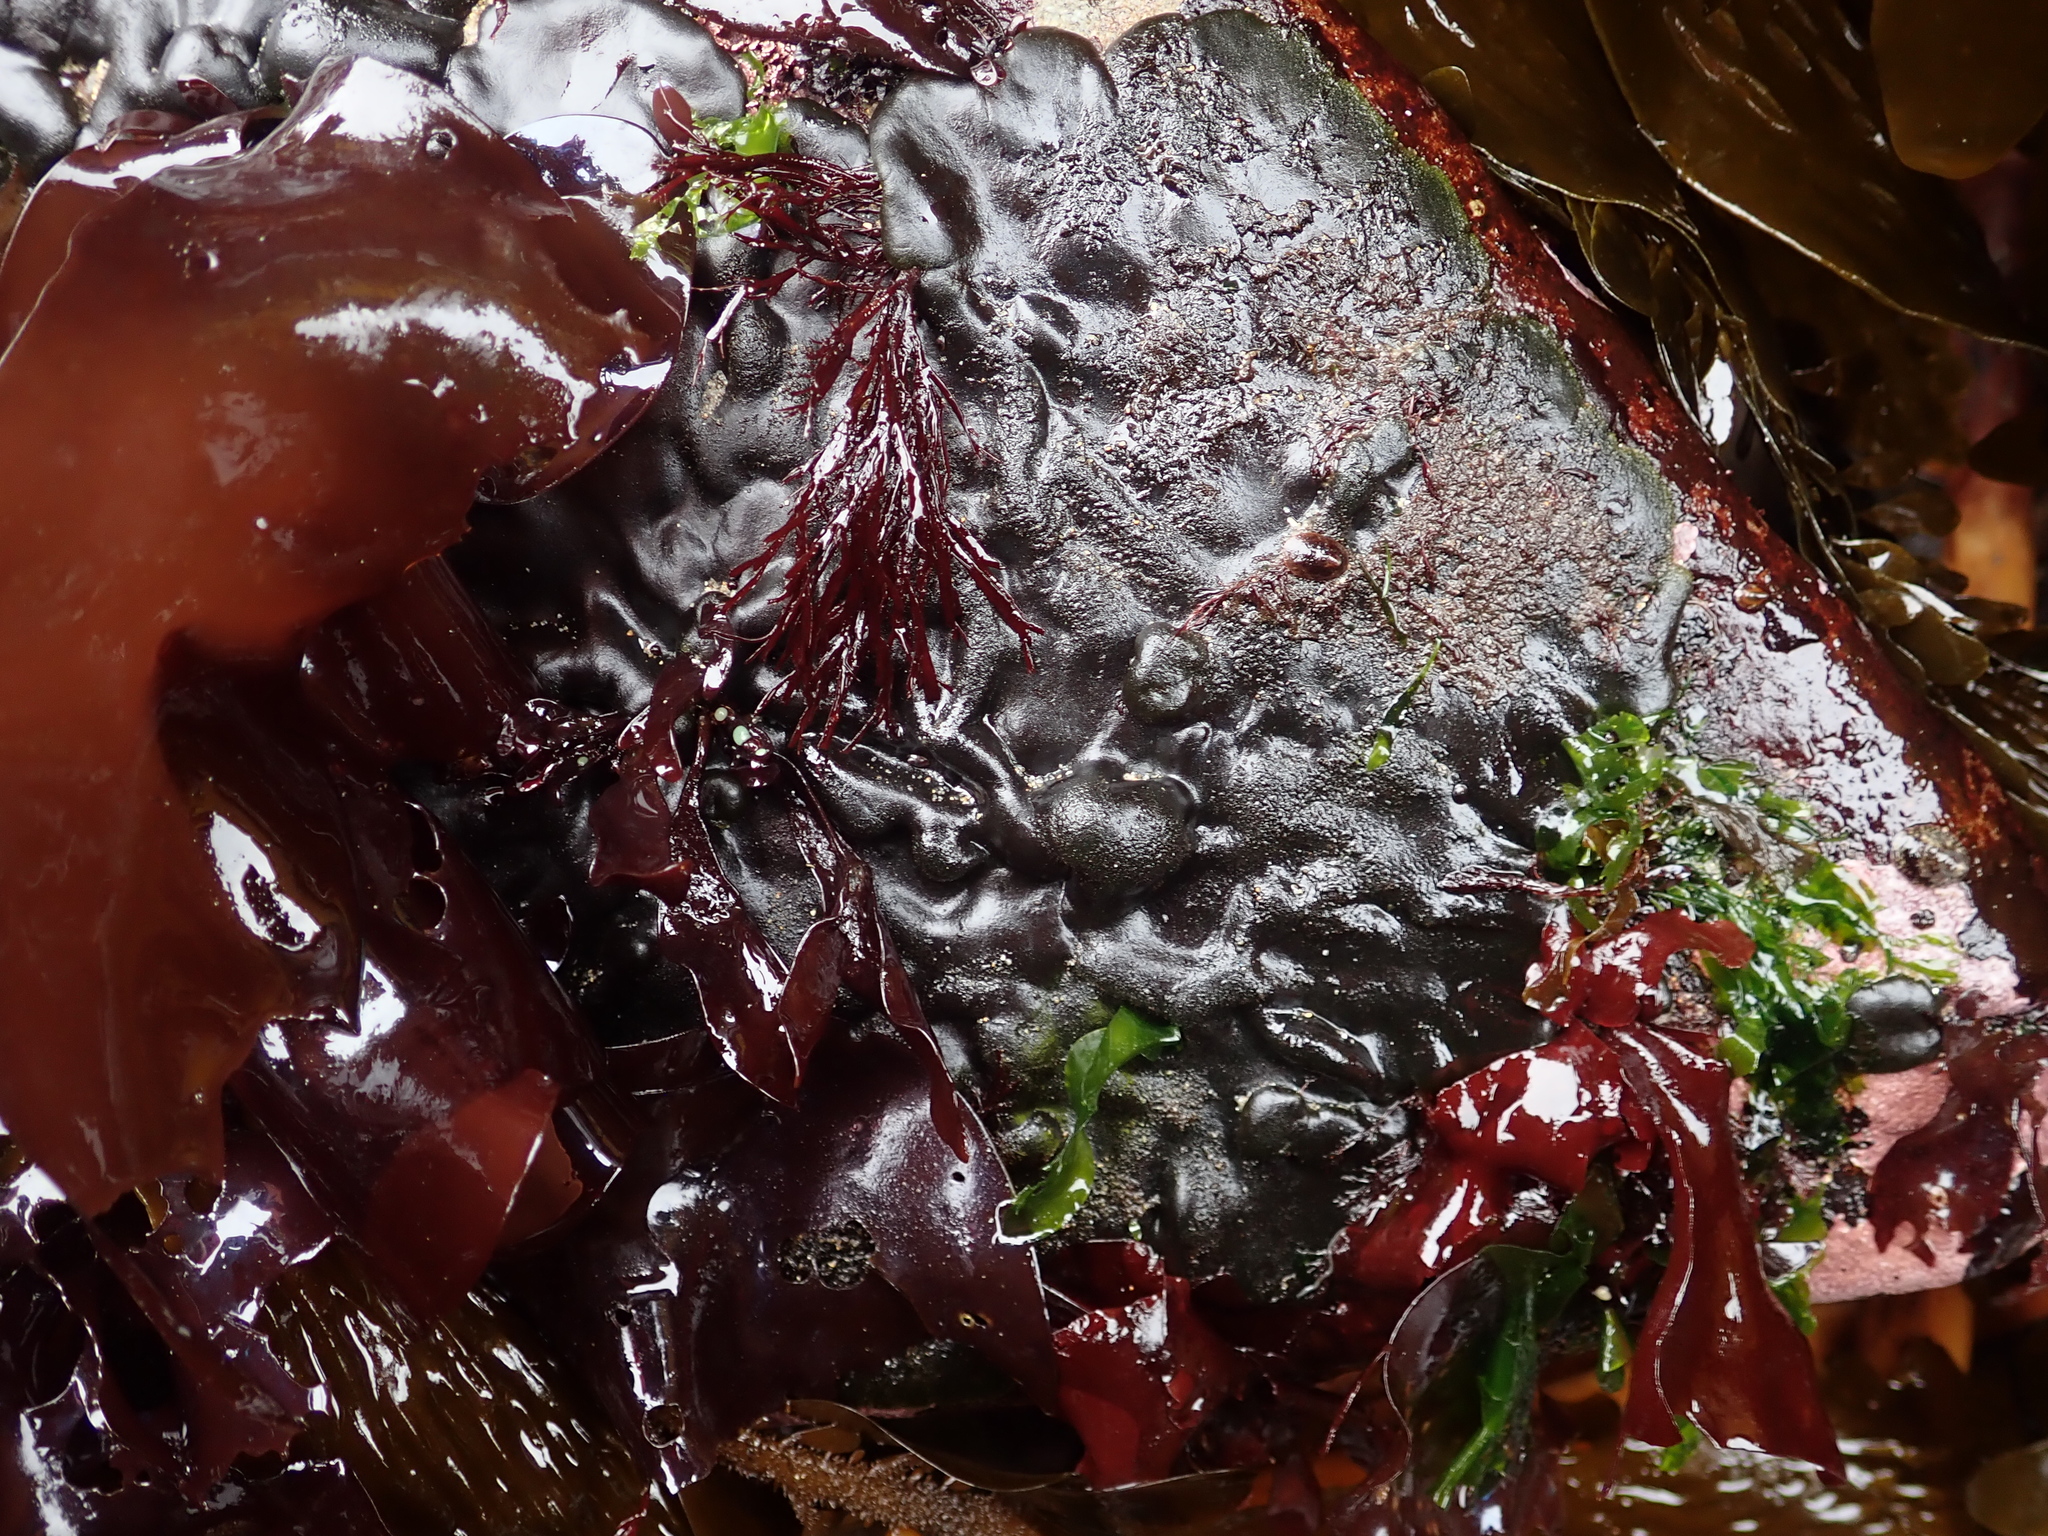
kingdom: Plantae
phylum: Chlorophyta
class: Ulvophyceae
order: Bryopsidales
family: Codiaceae
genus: Codium
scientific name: Codium setchellii
